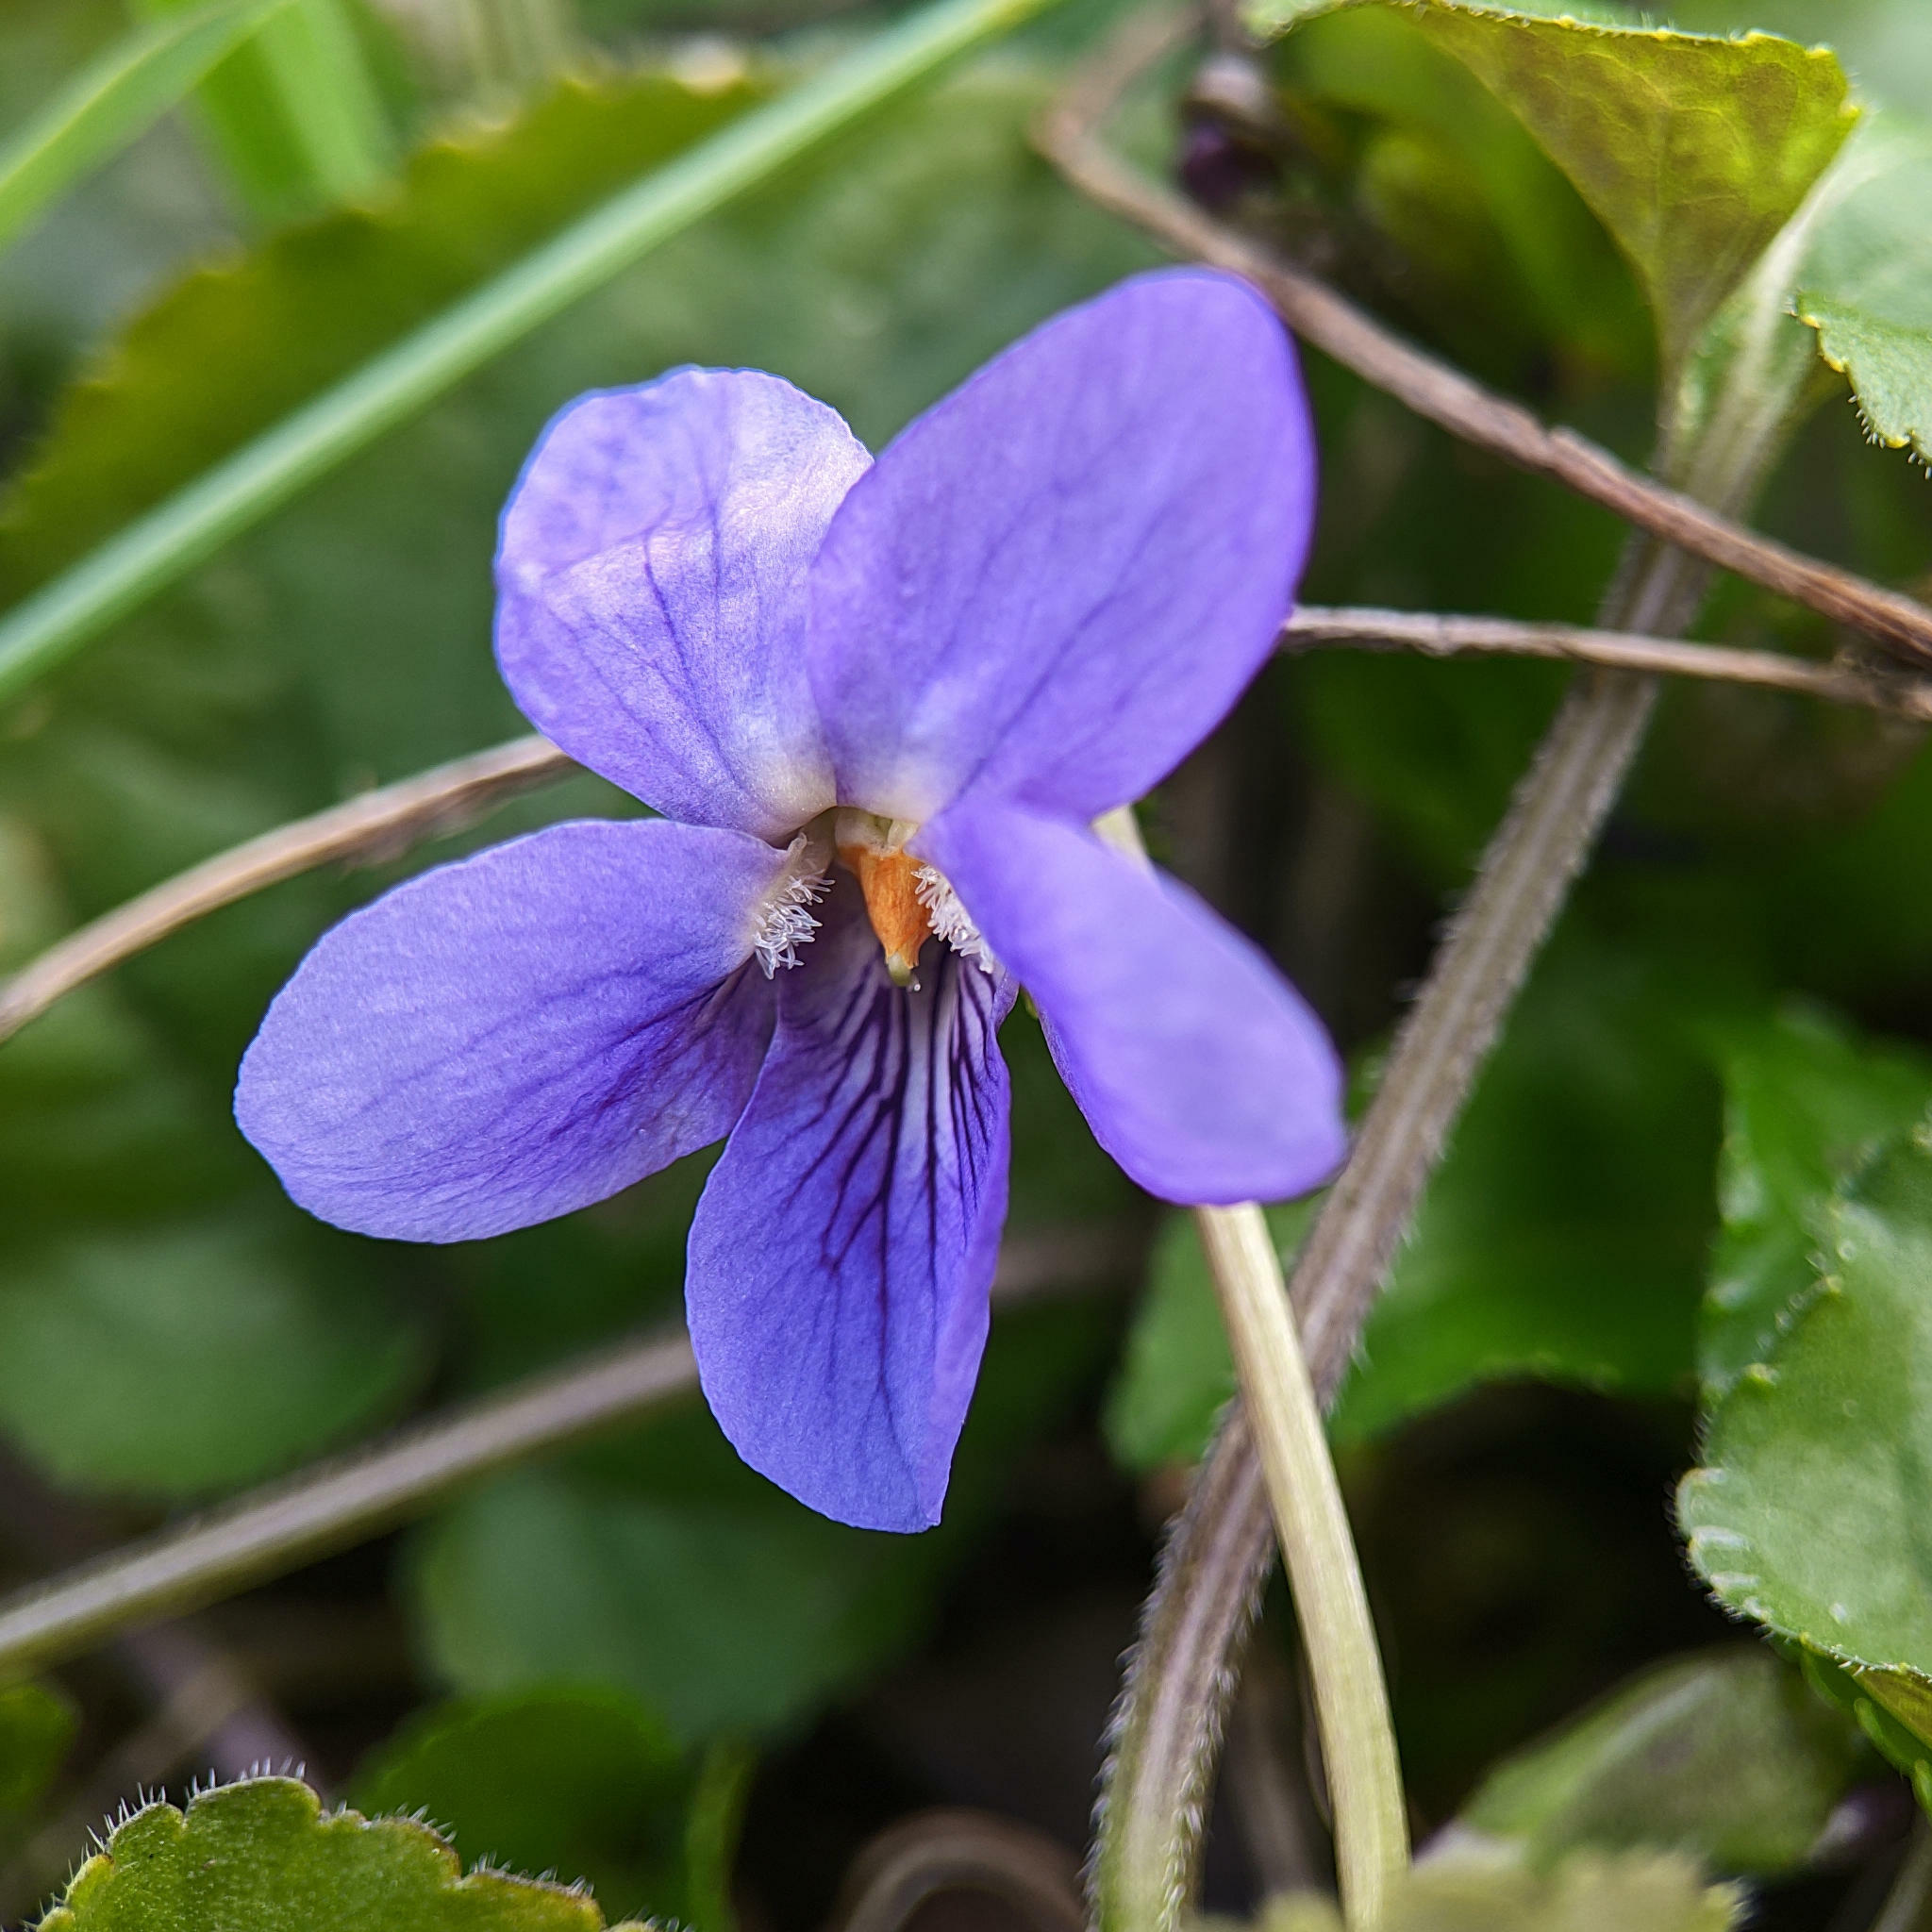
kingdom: Plantae
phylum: Tracheophyta
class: Magnoliopsida
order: Malpighiales
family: Violaceae
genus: Viola
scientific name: Viola odorata
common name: Sweet violet
